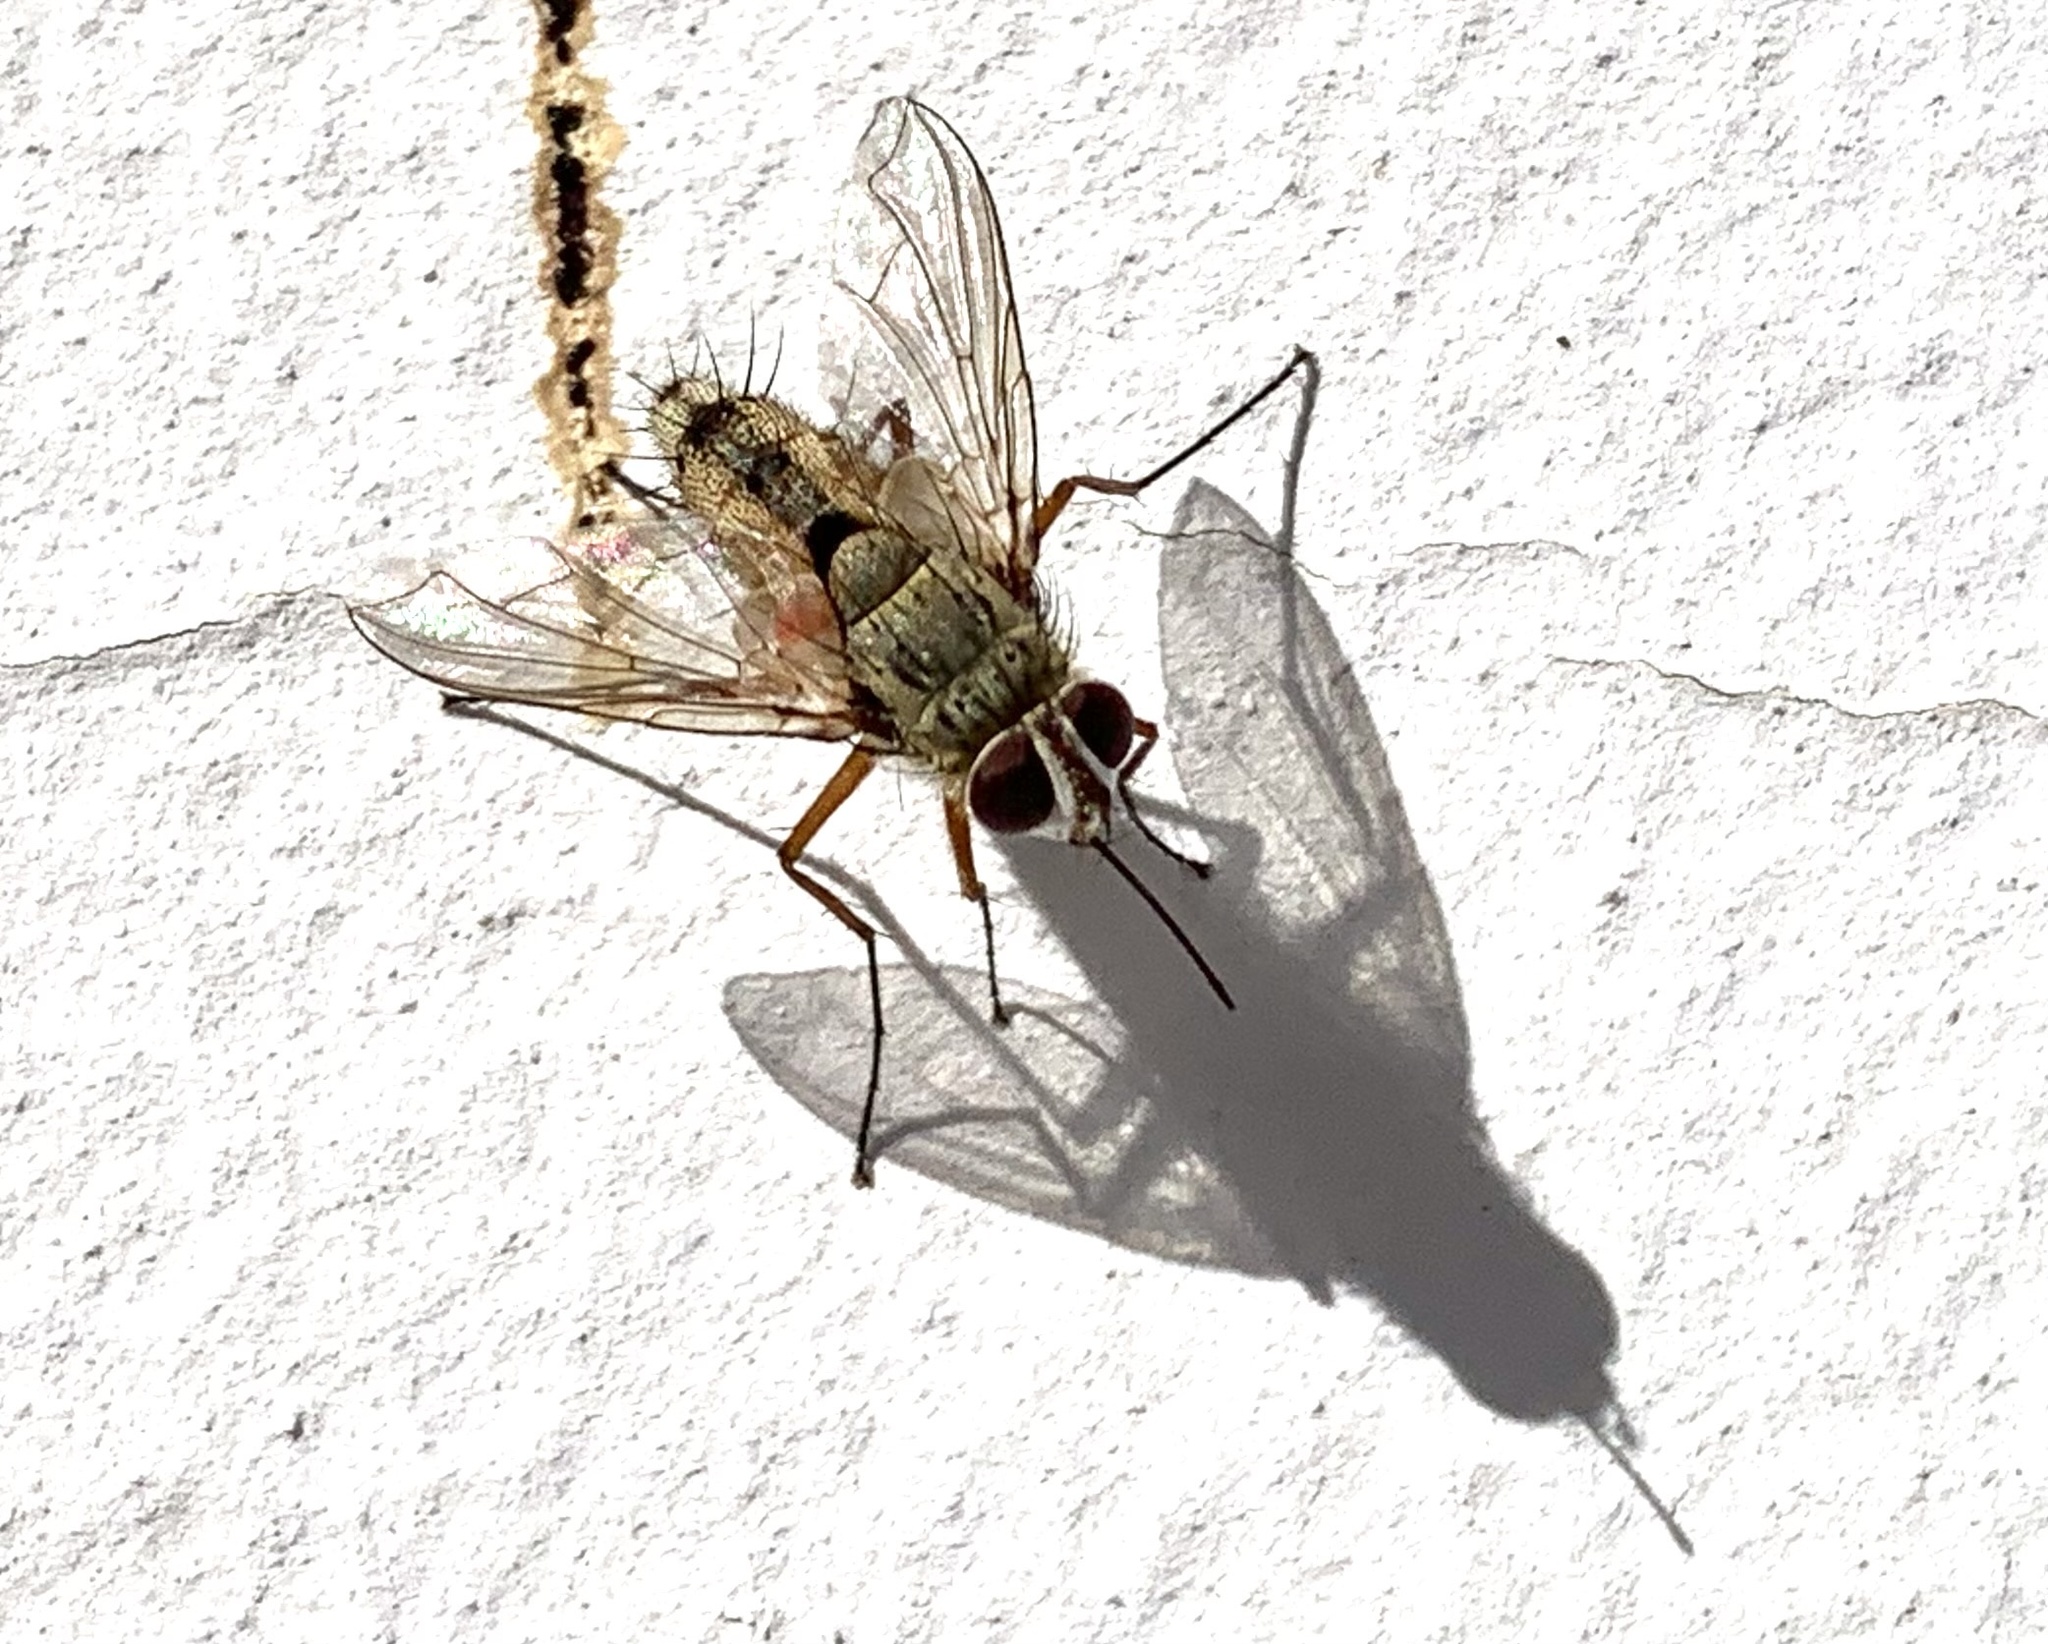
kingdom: Animalia
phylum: Arthropoda
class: Insecta
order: Diptera
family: Tachinidae
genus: Prosena
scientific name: Prosena siberita
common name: Parasitic fly
